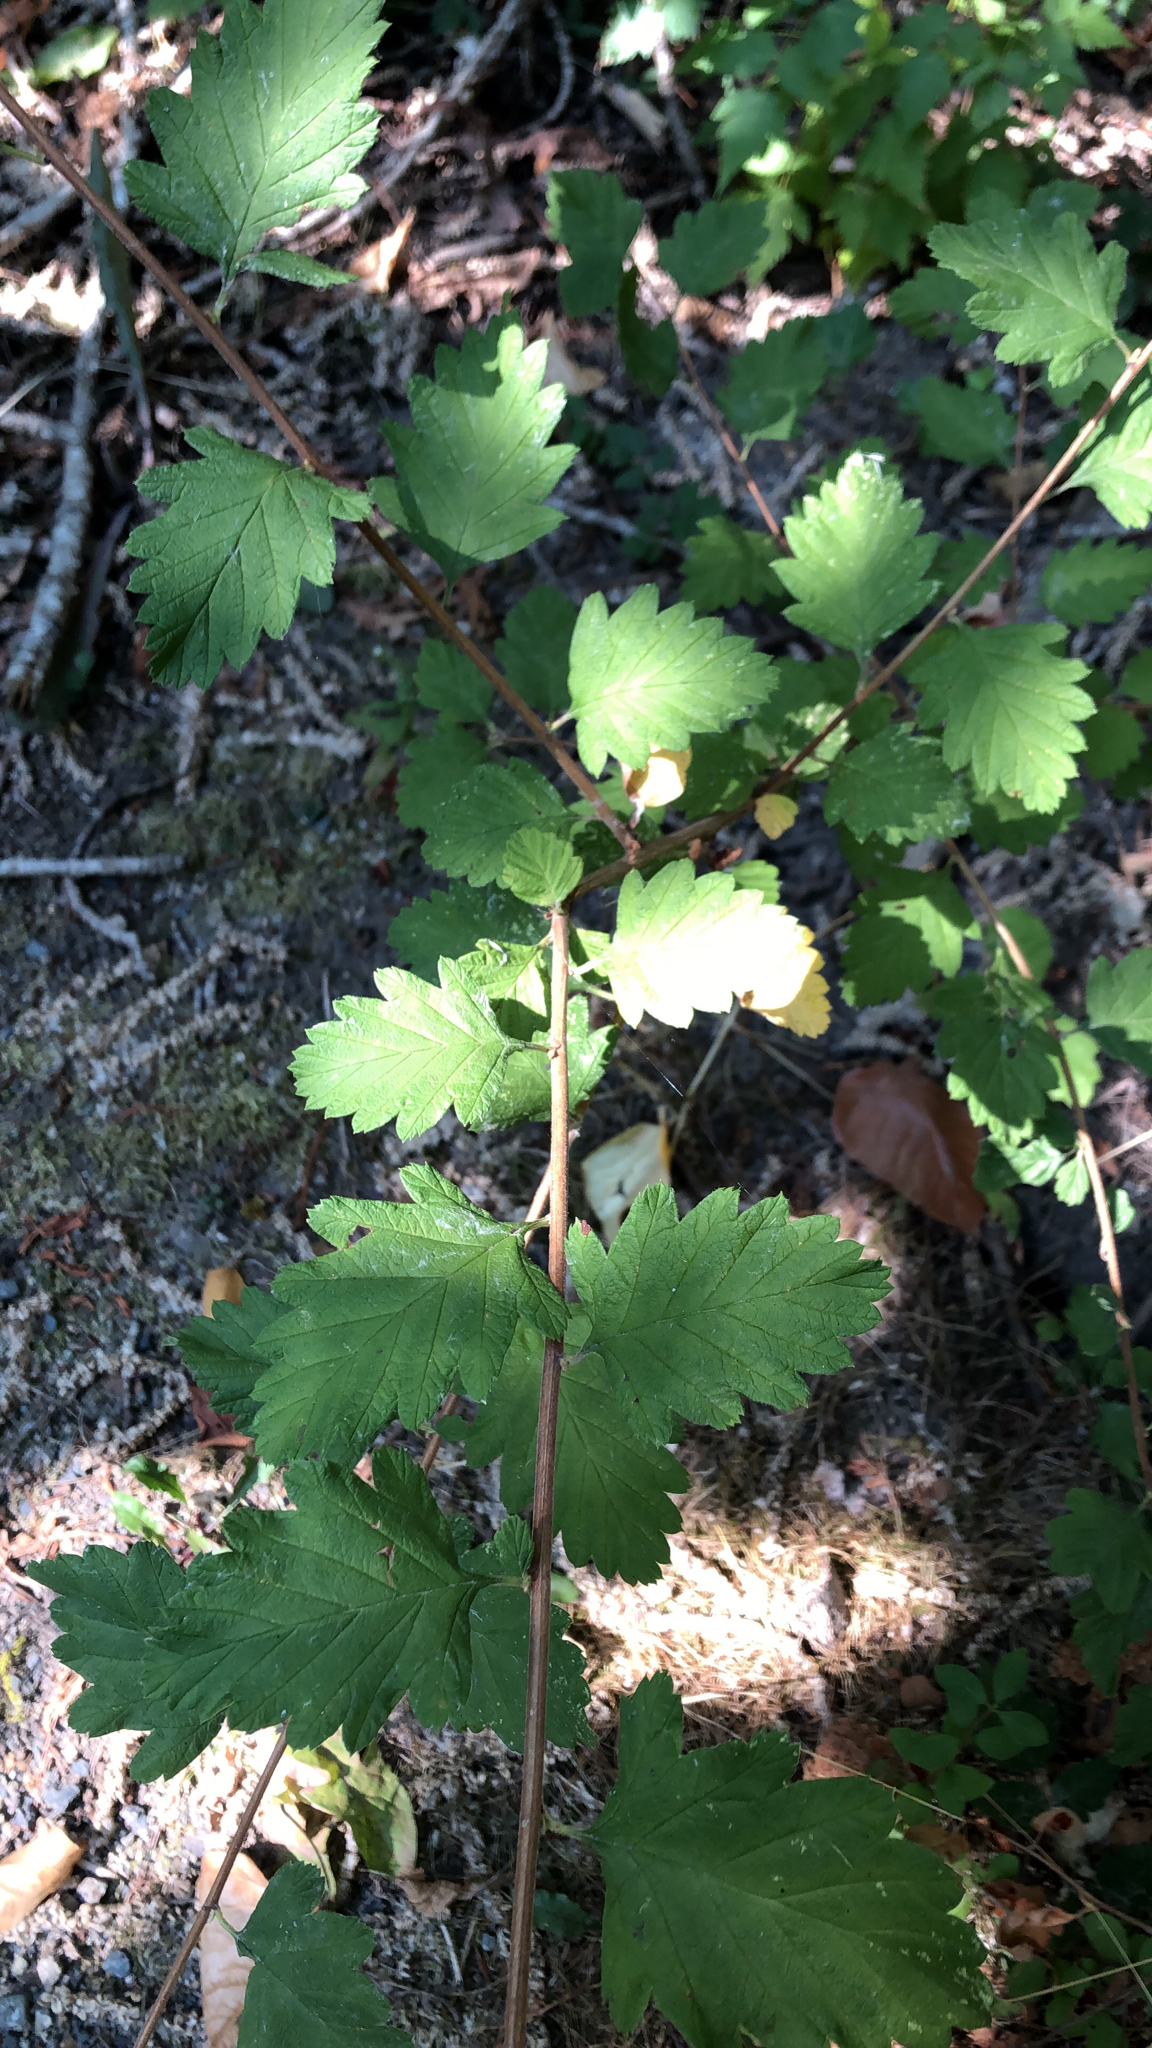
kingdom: Plantae
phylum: Tracheophyta
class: Magnoliopsida
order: Rosales
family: Rosaceae
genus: Holodiscus
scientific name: Holodiscus discolor
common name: Oceanspray
